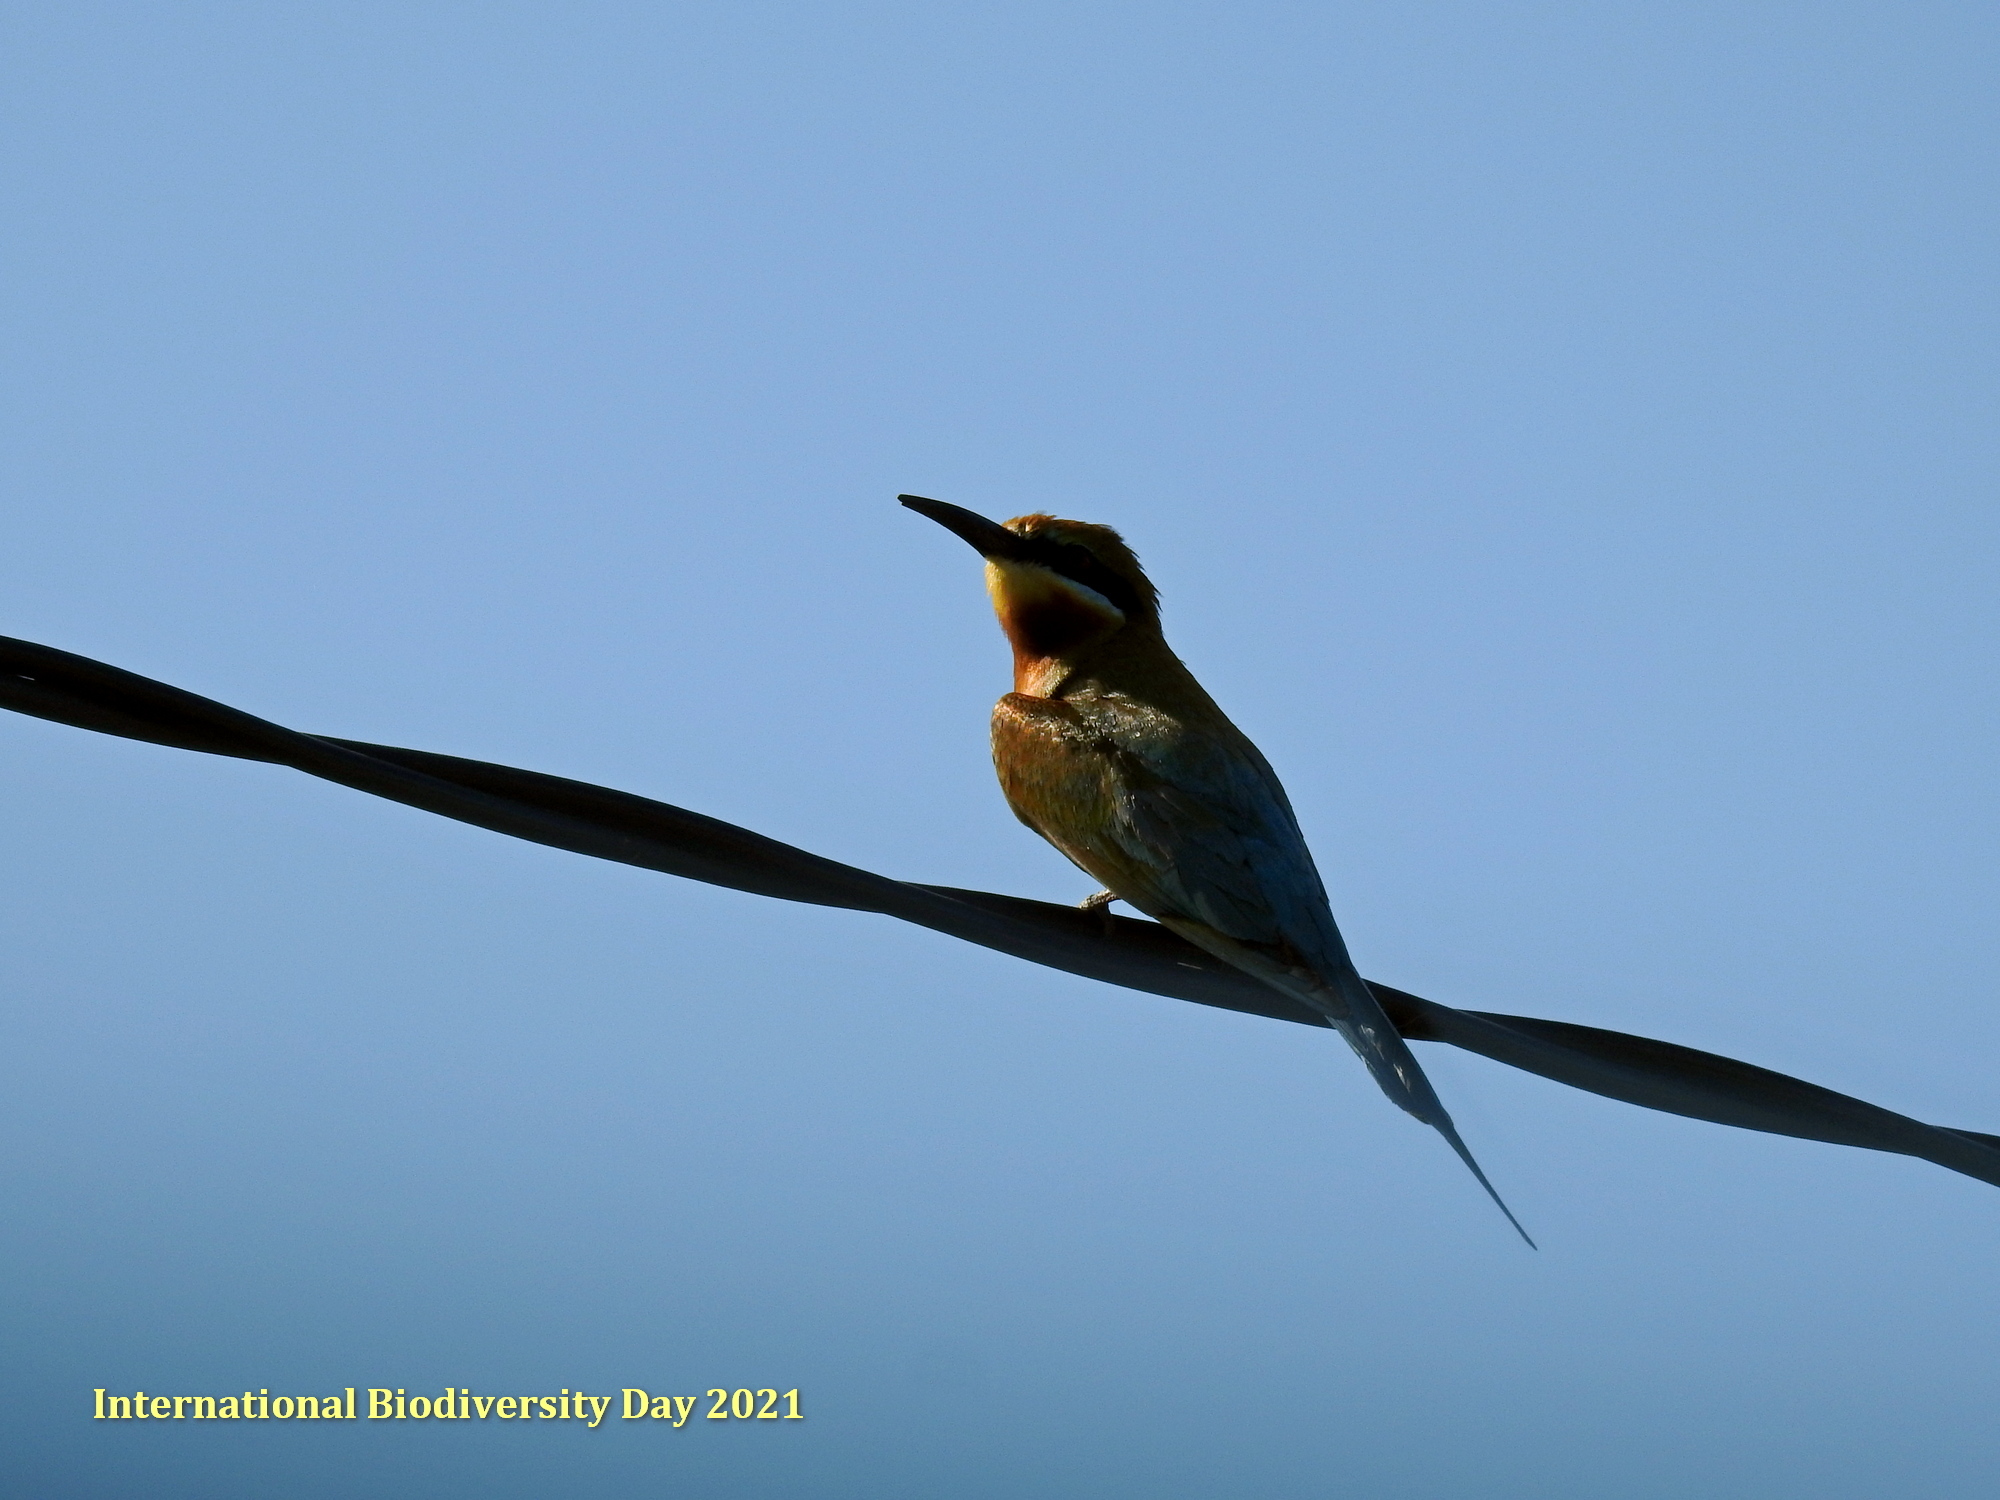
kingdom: Animalia
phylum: Chordata
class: Aves
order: Coraciiformes
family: Meropidae
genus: Merops
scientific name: Merops philippinus
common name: Blue-tailed bee-eater
